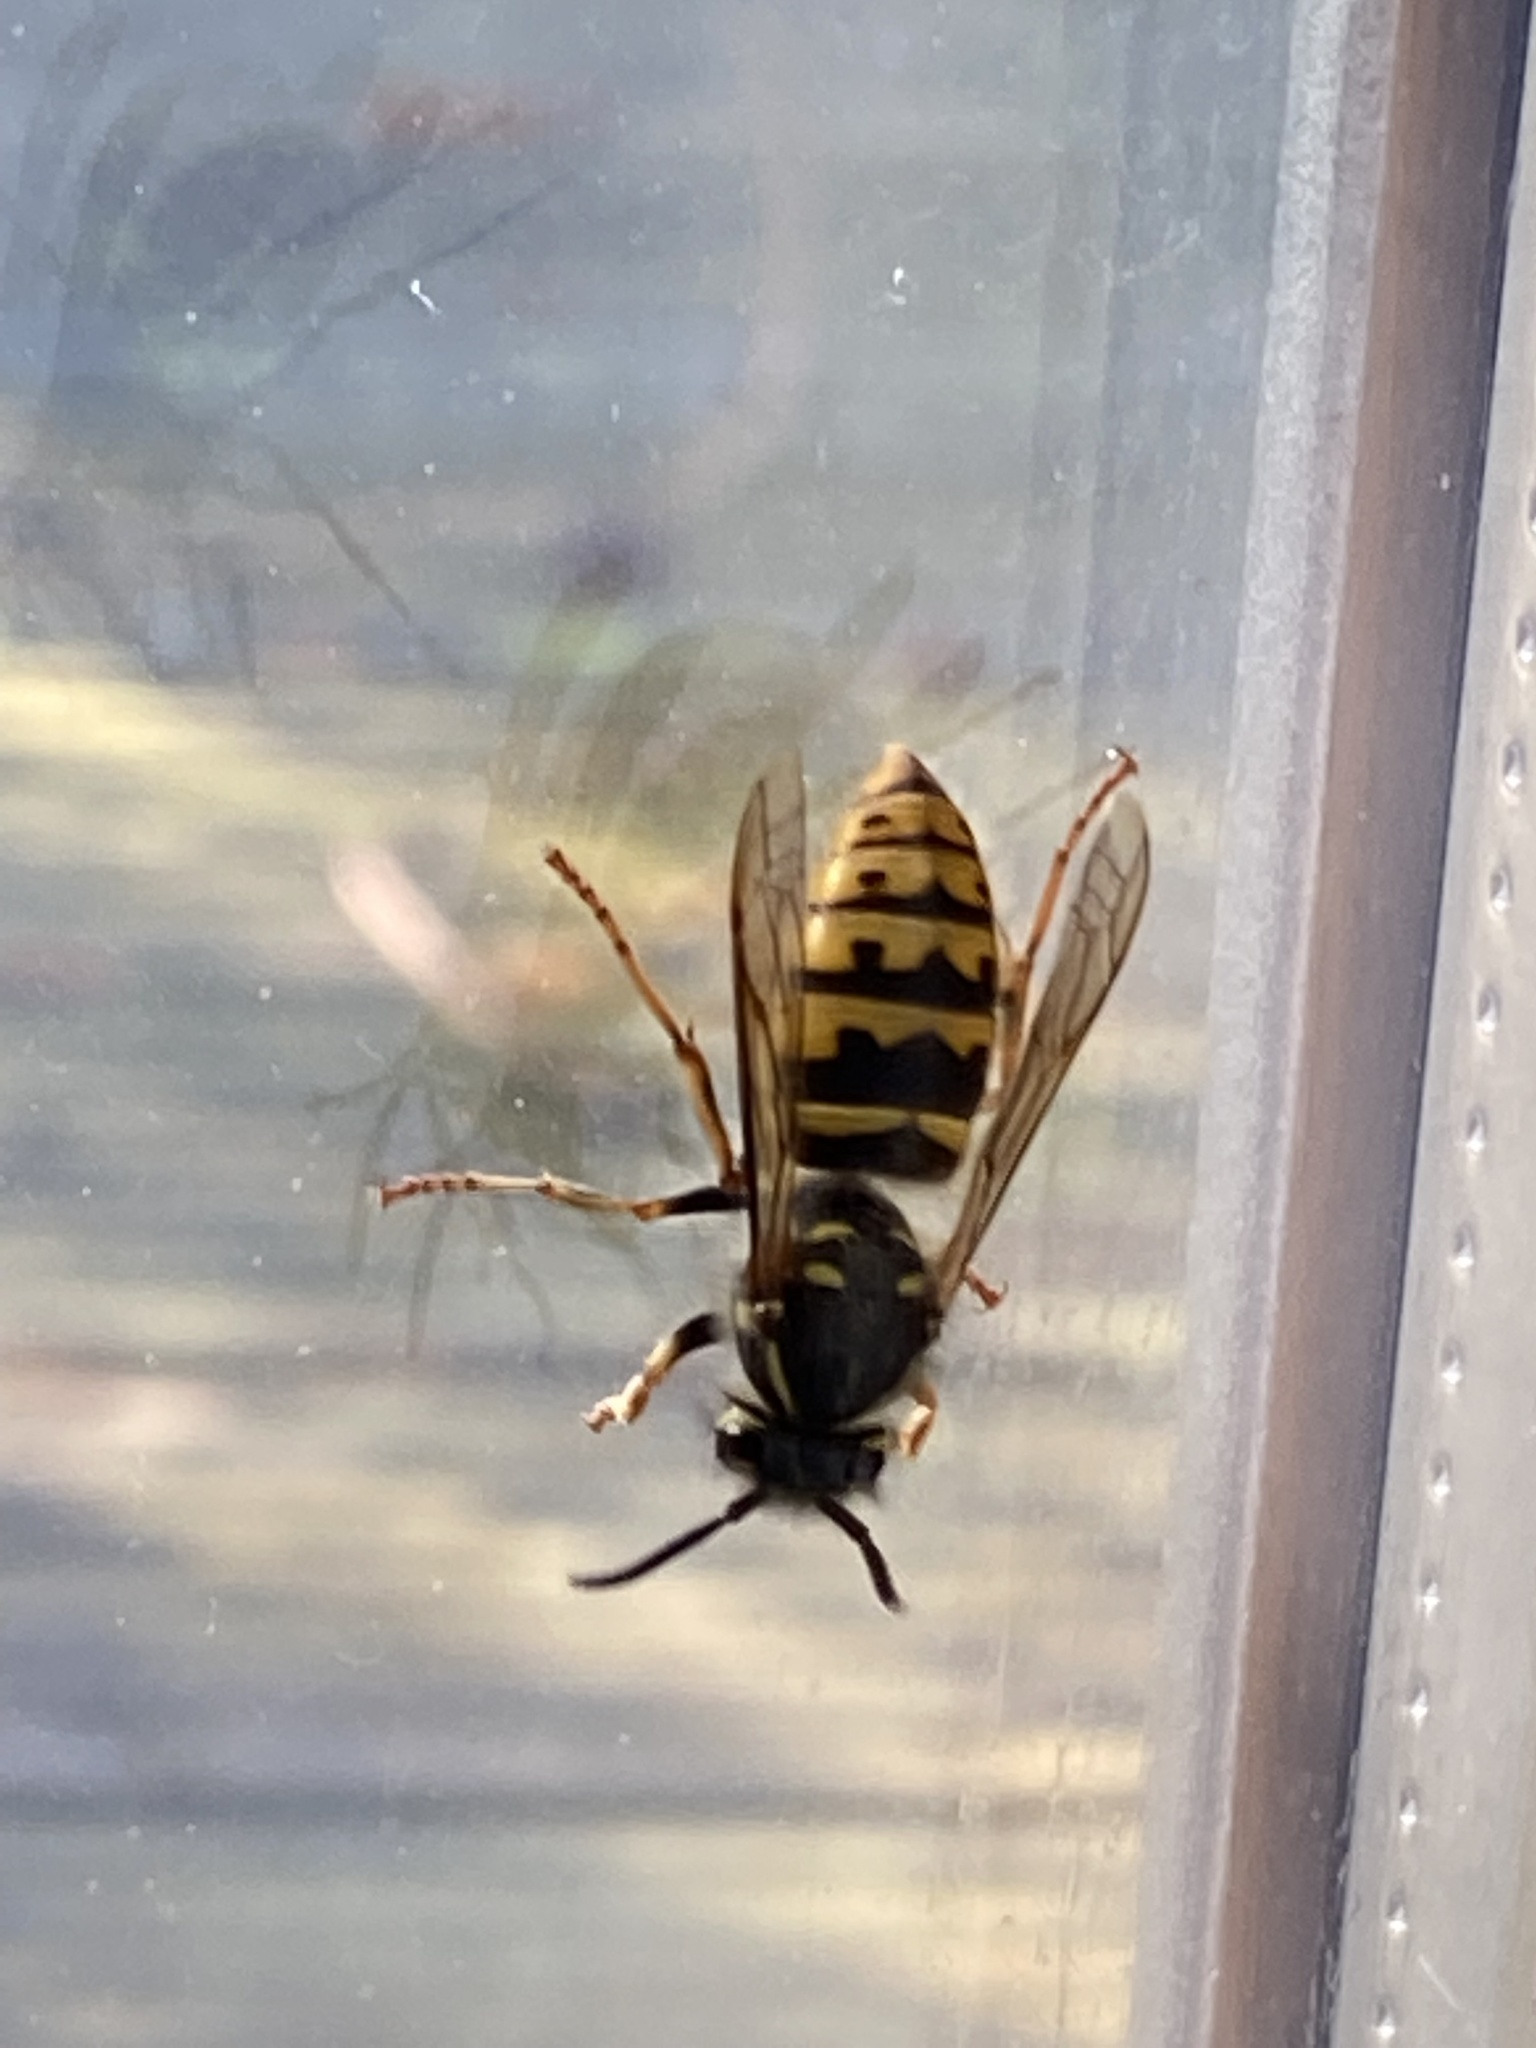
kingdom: Animalia
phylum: Arthropoda
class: Insecta
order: Hymenoptera
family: Vespidae
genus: Vespula
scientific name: Vespula vulgaris
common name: Common wasp
